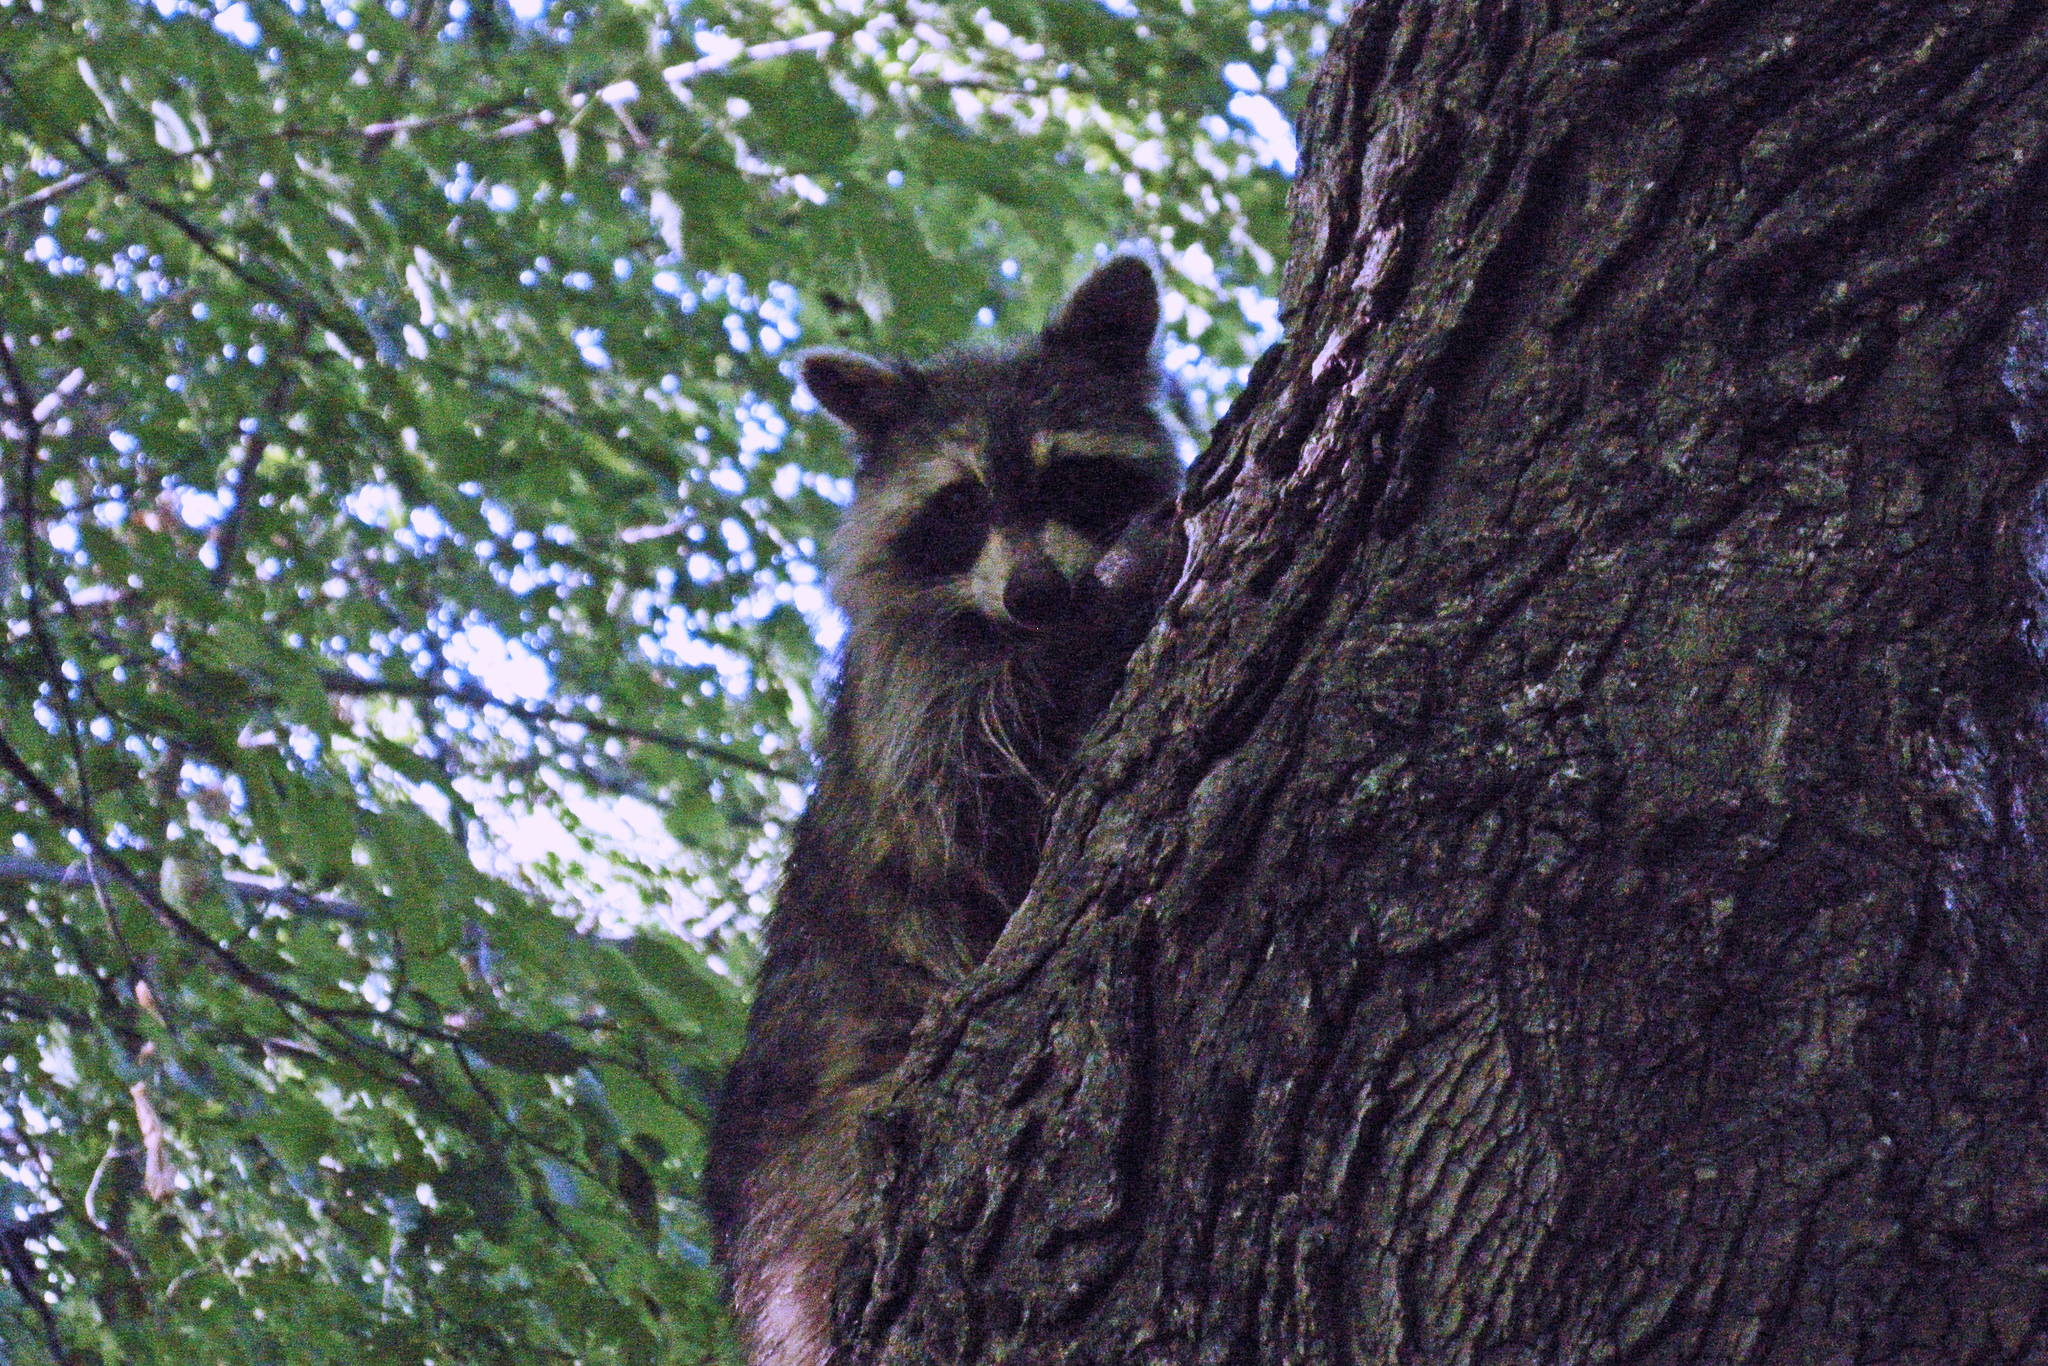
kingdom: Animalia
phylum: Chordata
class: Mammalia
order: Carnivora
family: Procyonidae
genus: Procyon
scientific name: Procyon lotor
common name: Raccoon
